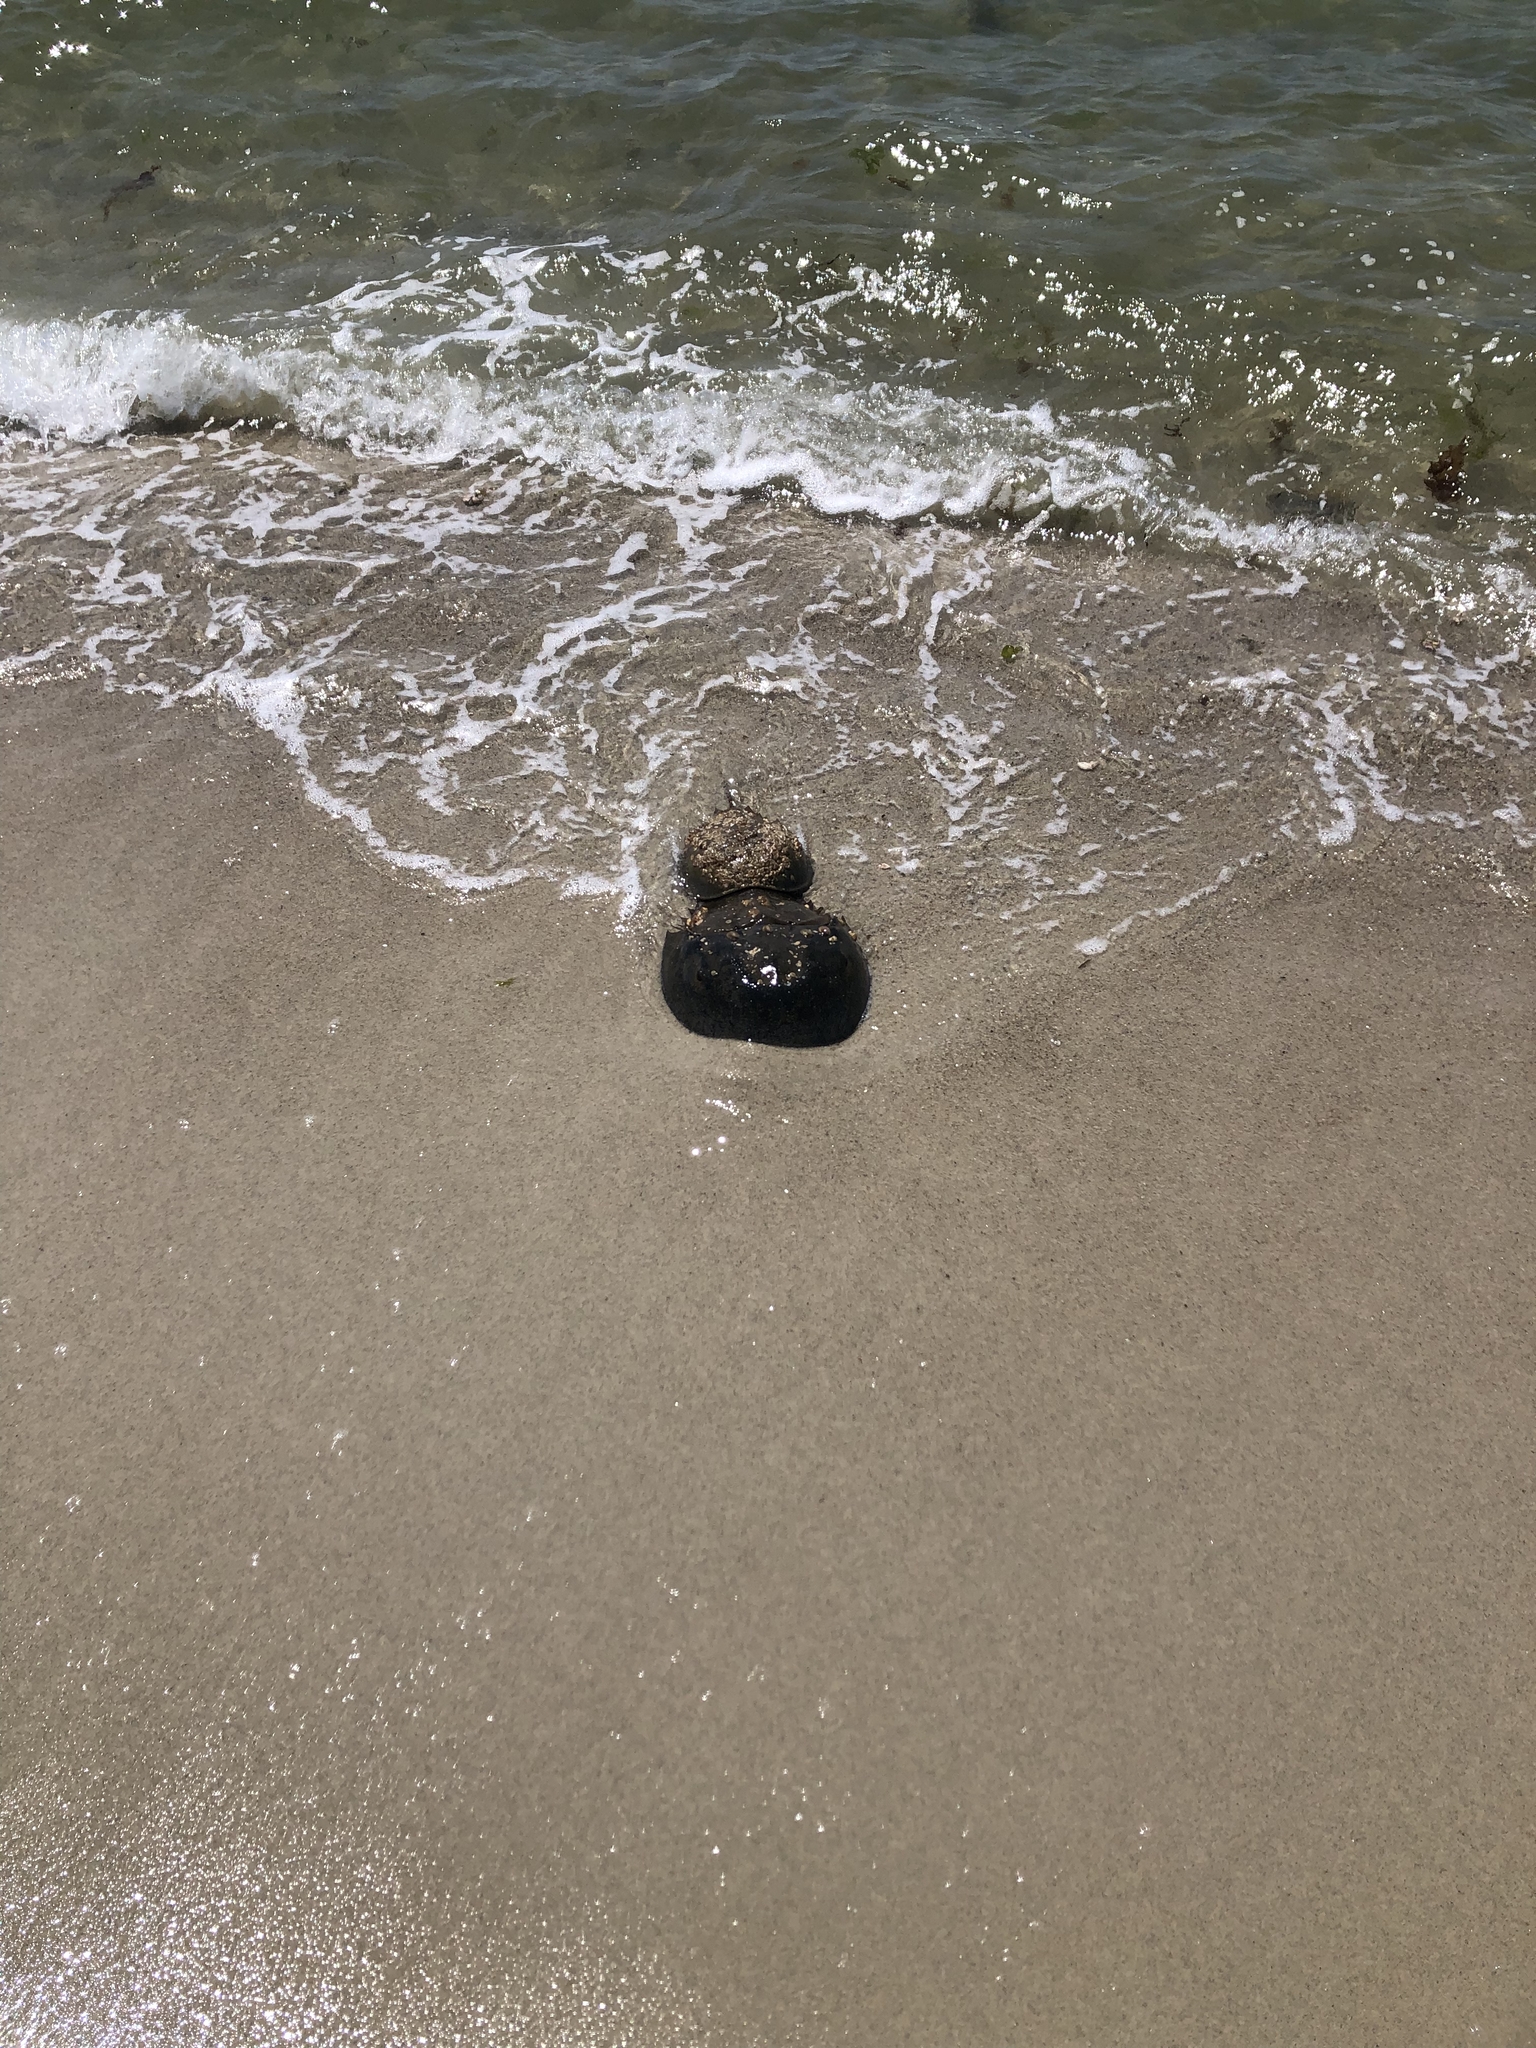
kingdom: Animalia
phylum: Arthropoda
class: Merostomata
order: Xiphosurida
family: Limulidae
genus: Limulus
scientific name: Limulus polyphemus
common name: Horseshoe crab
